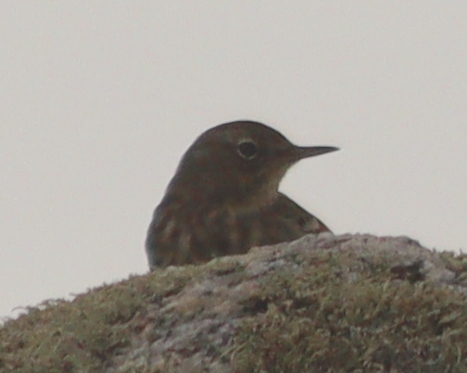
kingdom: Animalia
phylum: Chordata
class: Aves
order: Passeriformes
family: Motacillidae
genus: Anthus
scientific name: Anthus petrosus
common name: Eurasian rock pipit
